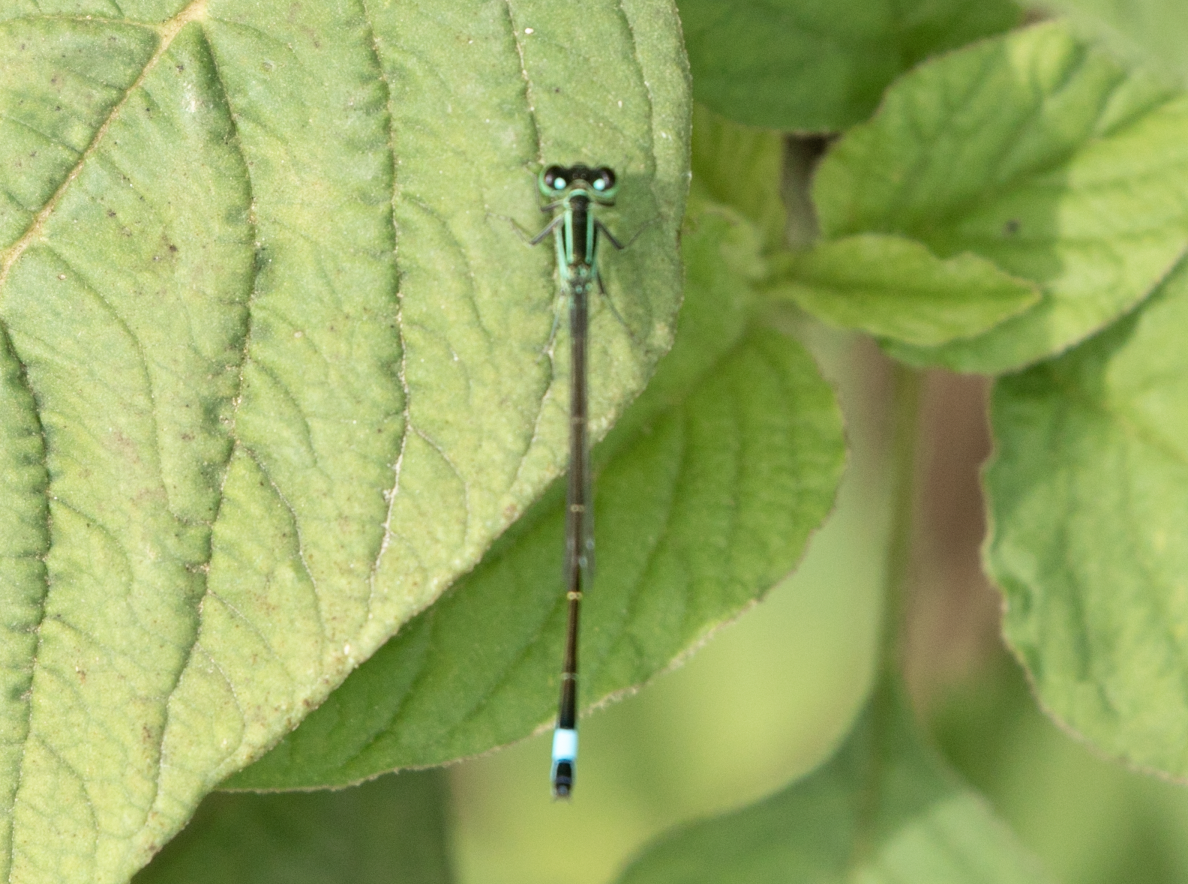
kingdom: Animalia
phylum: Arthropoda
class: Insecta
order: Odonata
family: Coenagrionidae
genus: Ischnura
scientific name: Ischnura elegans
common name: Blue-tailed damselfly
